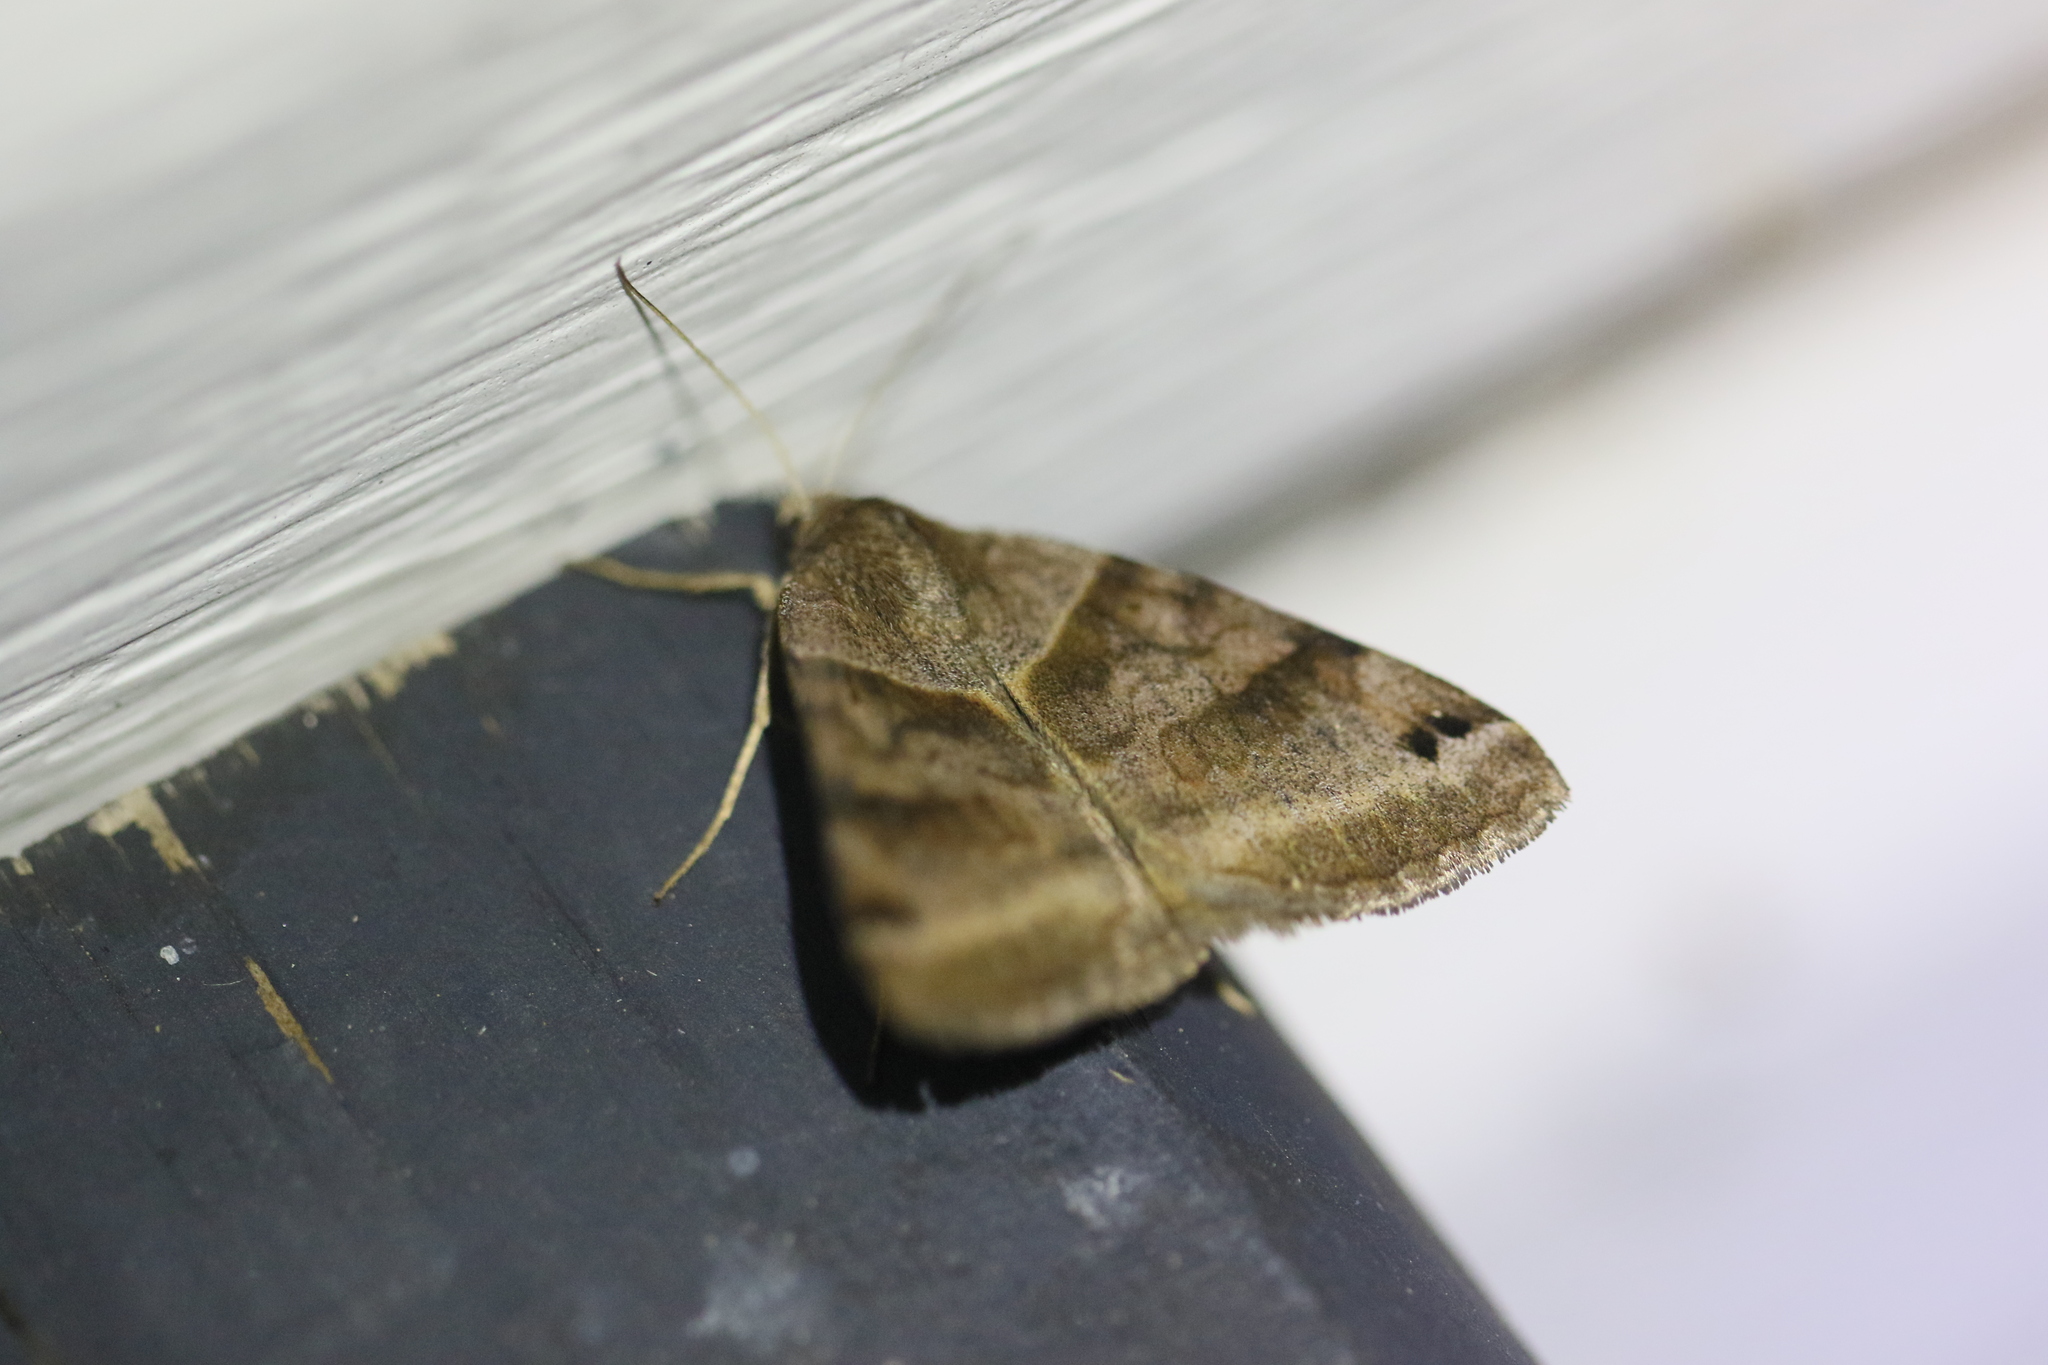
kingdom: Animalia
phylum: Arthropoda
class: Insecta
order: Lepidoptera
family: Erebidae
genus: Caenurgina
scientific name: Caenurgina crassiuscula
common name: Double-barred
